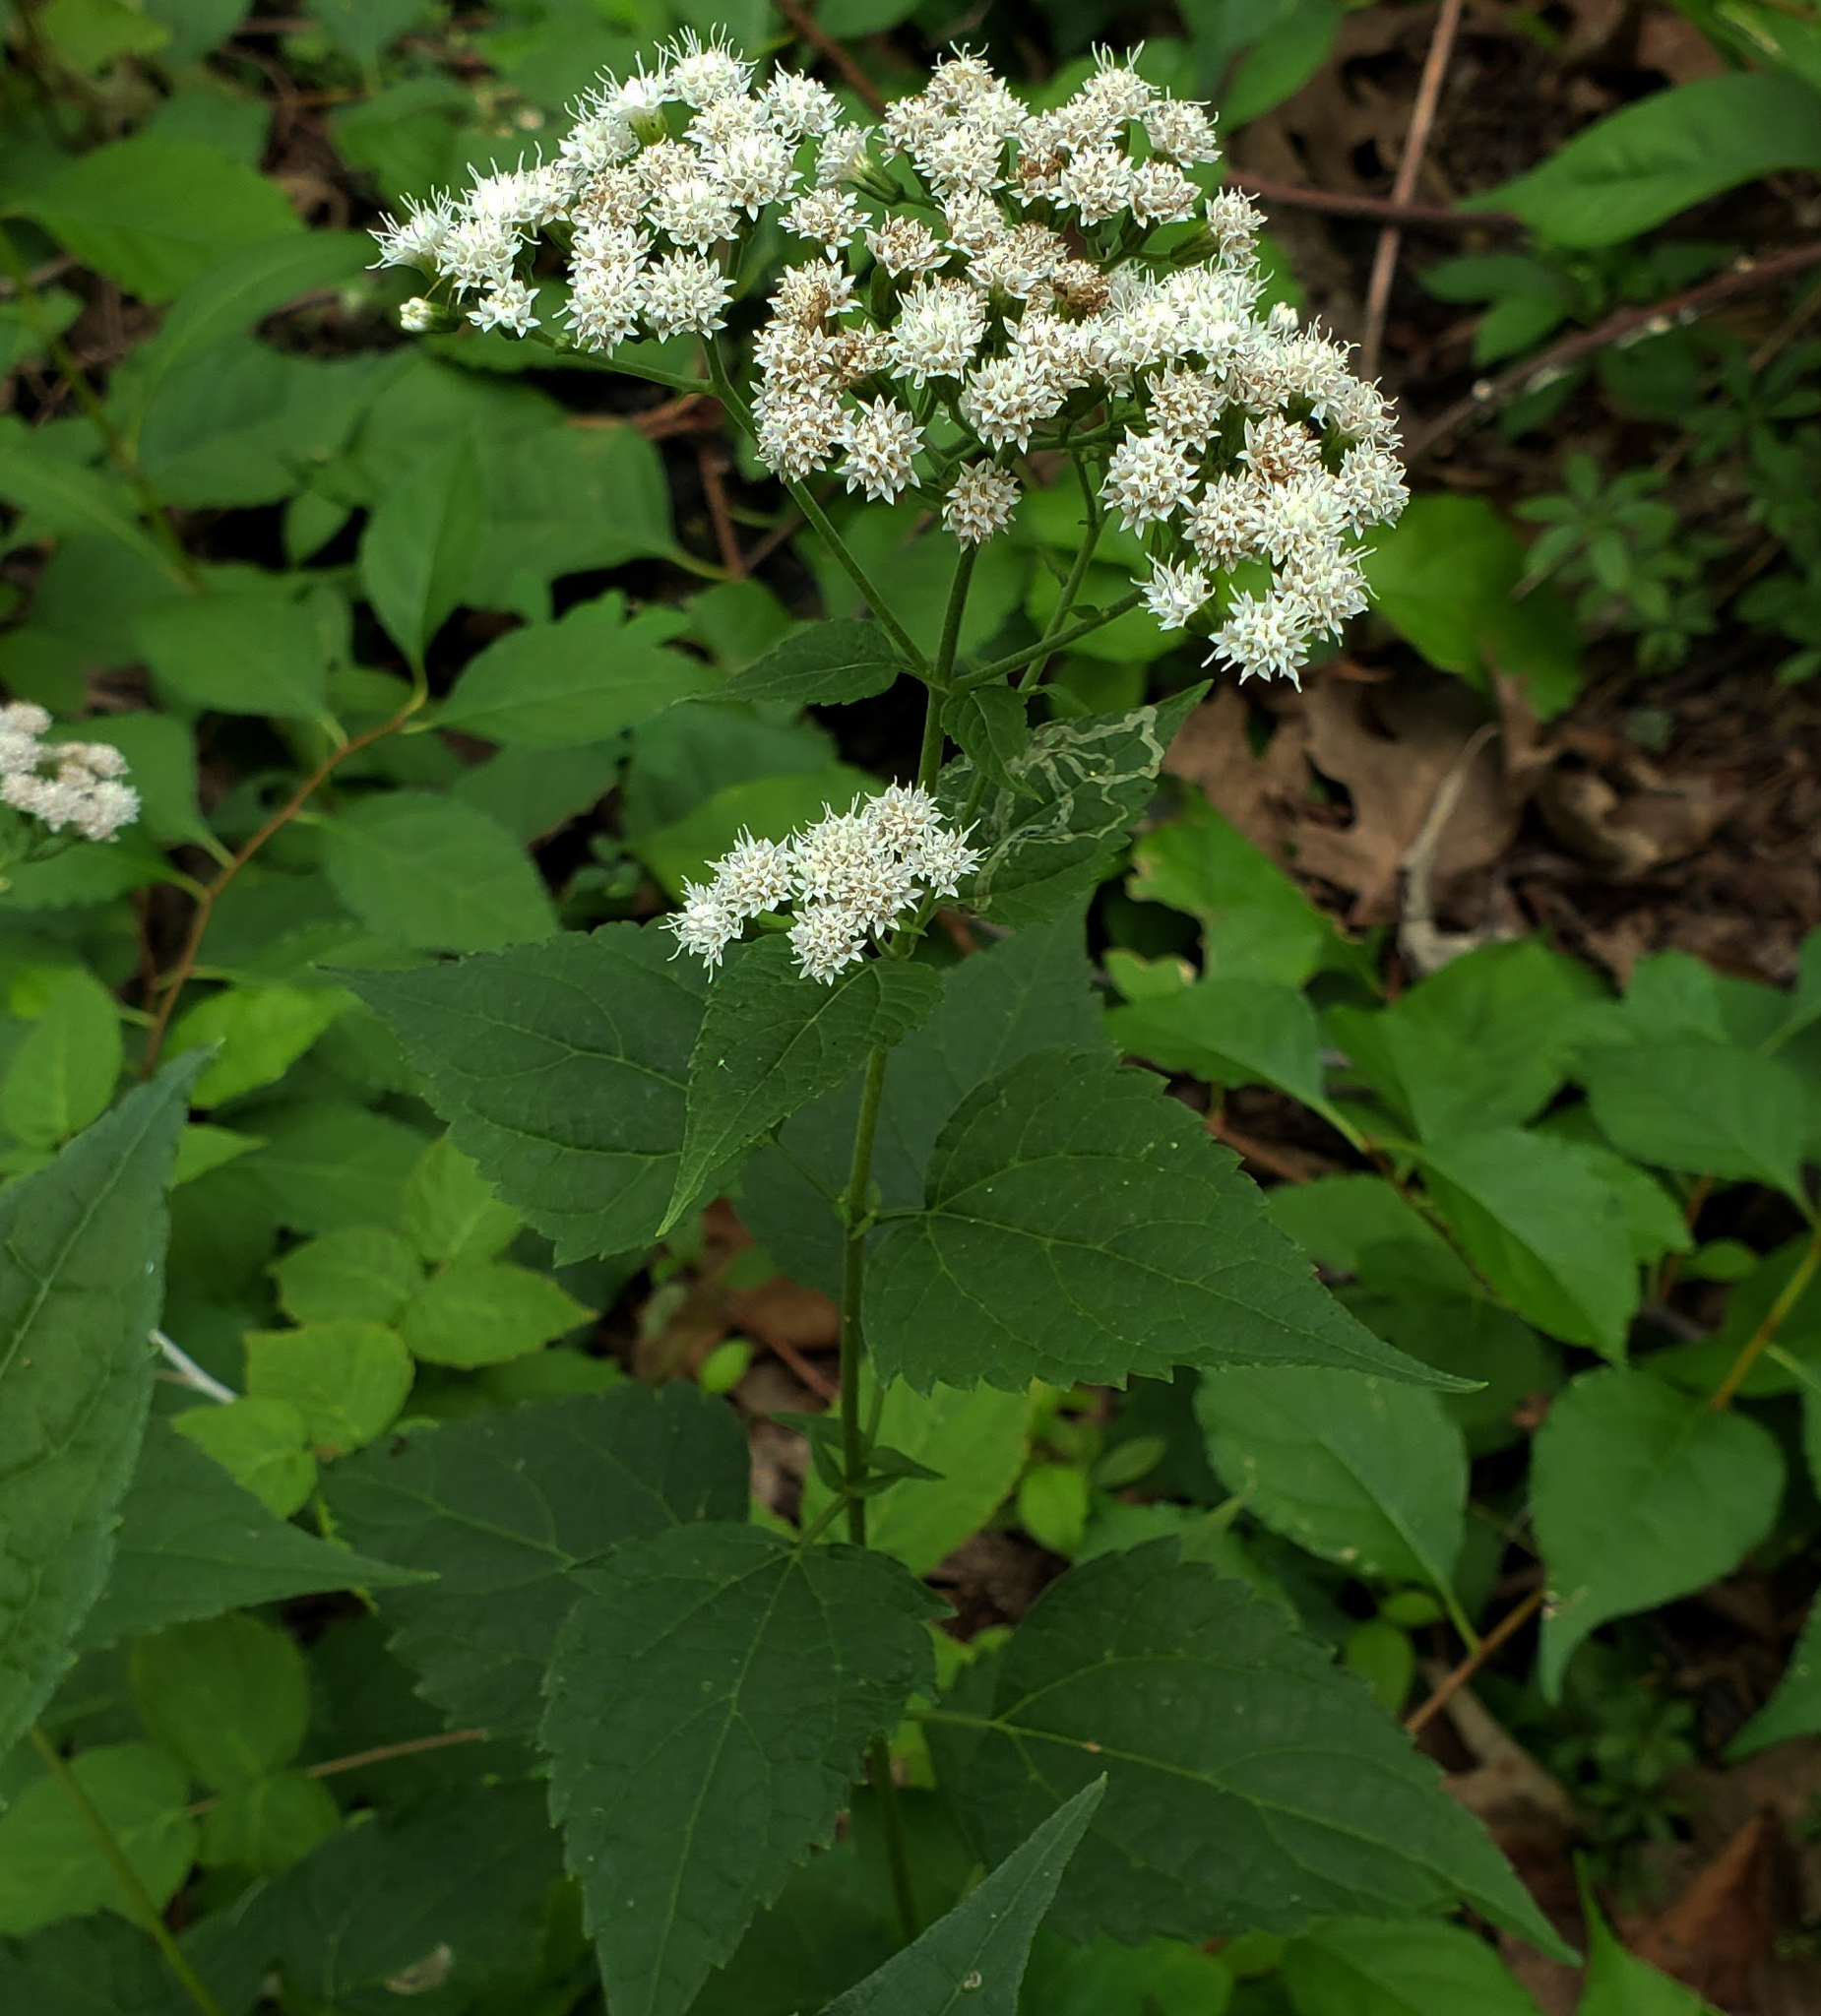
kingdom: Plantae
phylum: Tracheophyta
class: Magnoliopsida
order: Asterales
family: Asteraceae
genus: Ageratina
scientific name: Ageratina altissima
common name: White snakeroot
